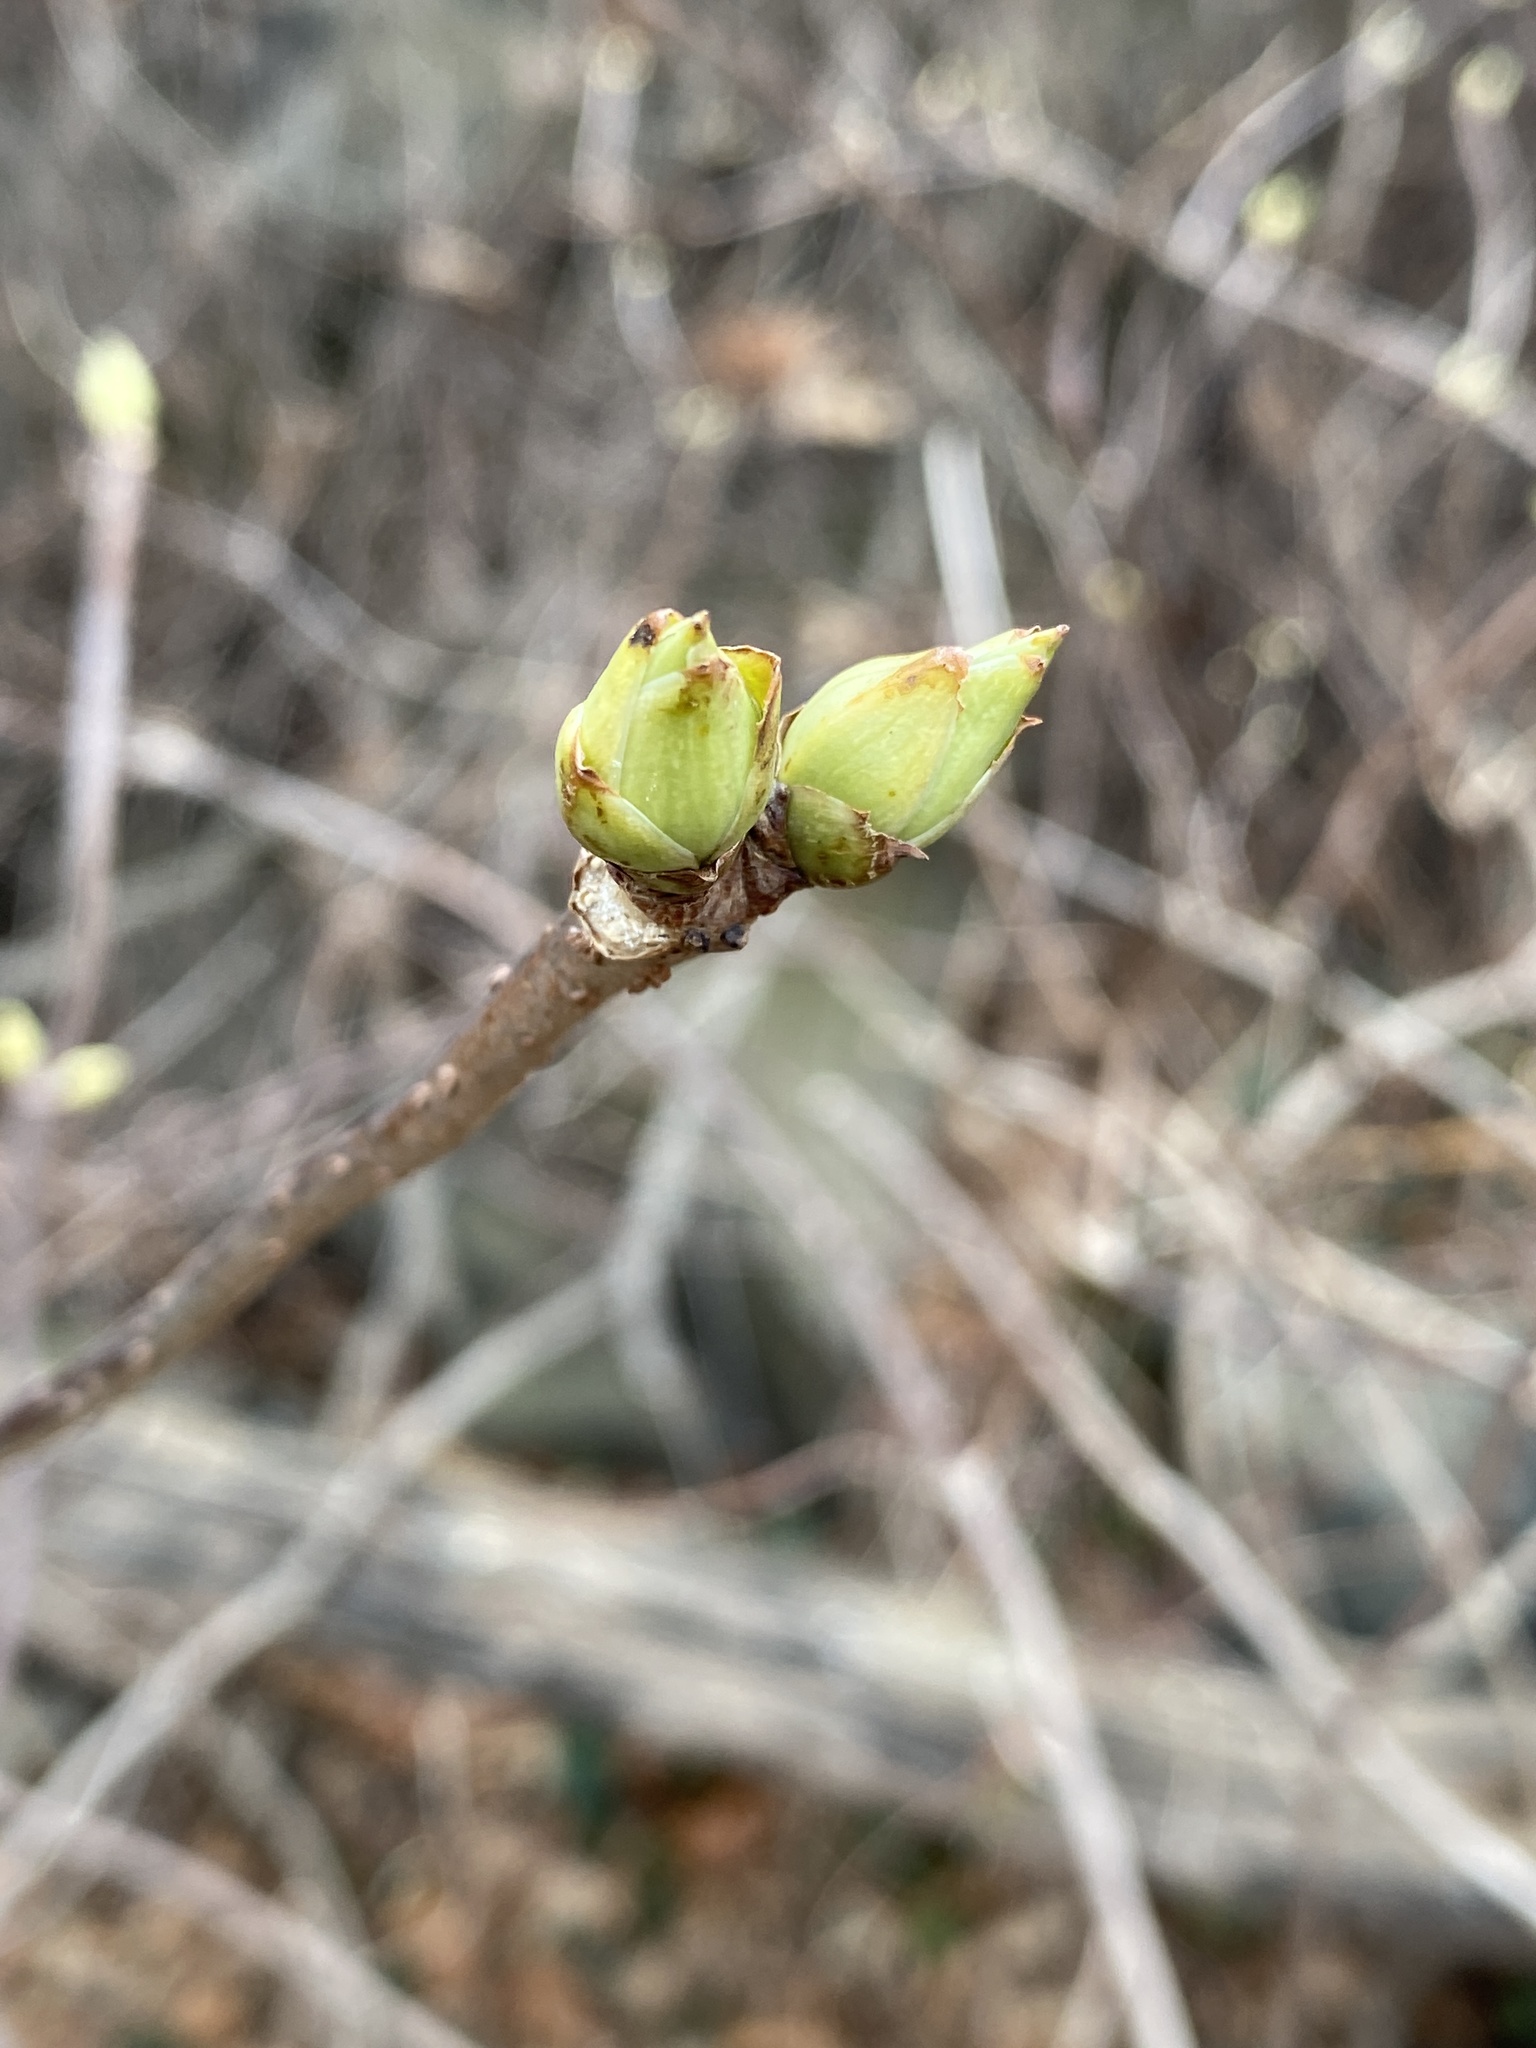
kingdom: Plantae
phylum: Tracheophyta
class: Magnoliopsida
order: Dipsacales
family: Viburnaceae
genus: Sambucus
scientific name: Sambucus racemosa
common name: Red-berried elder
